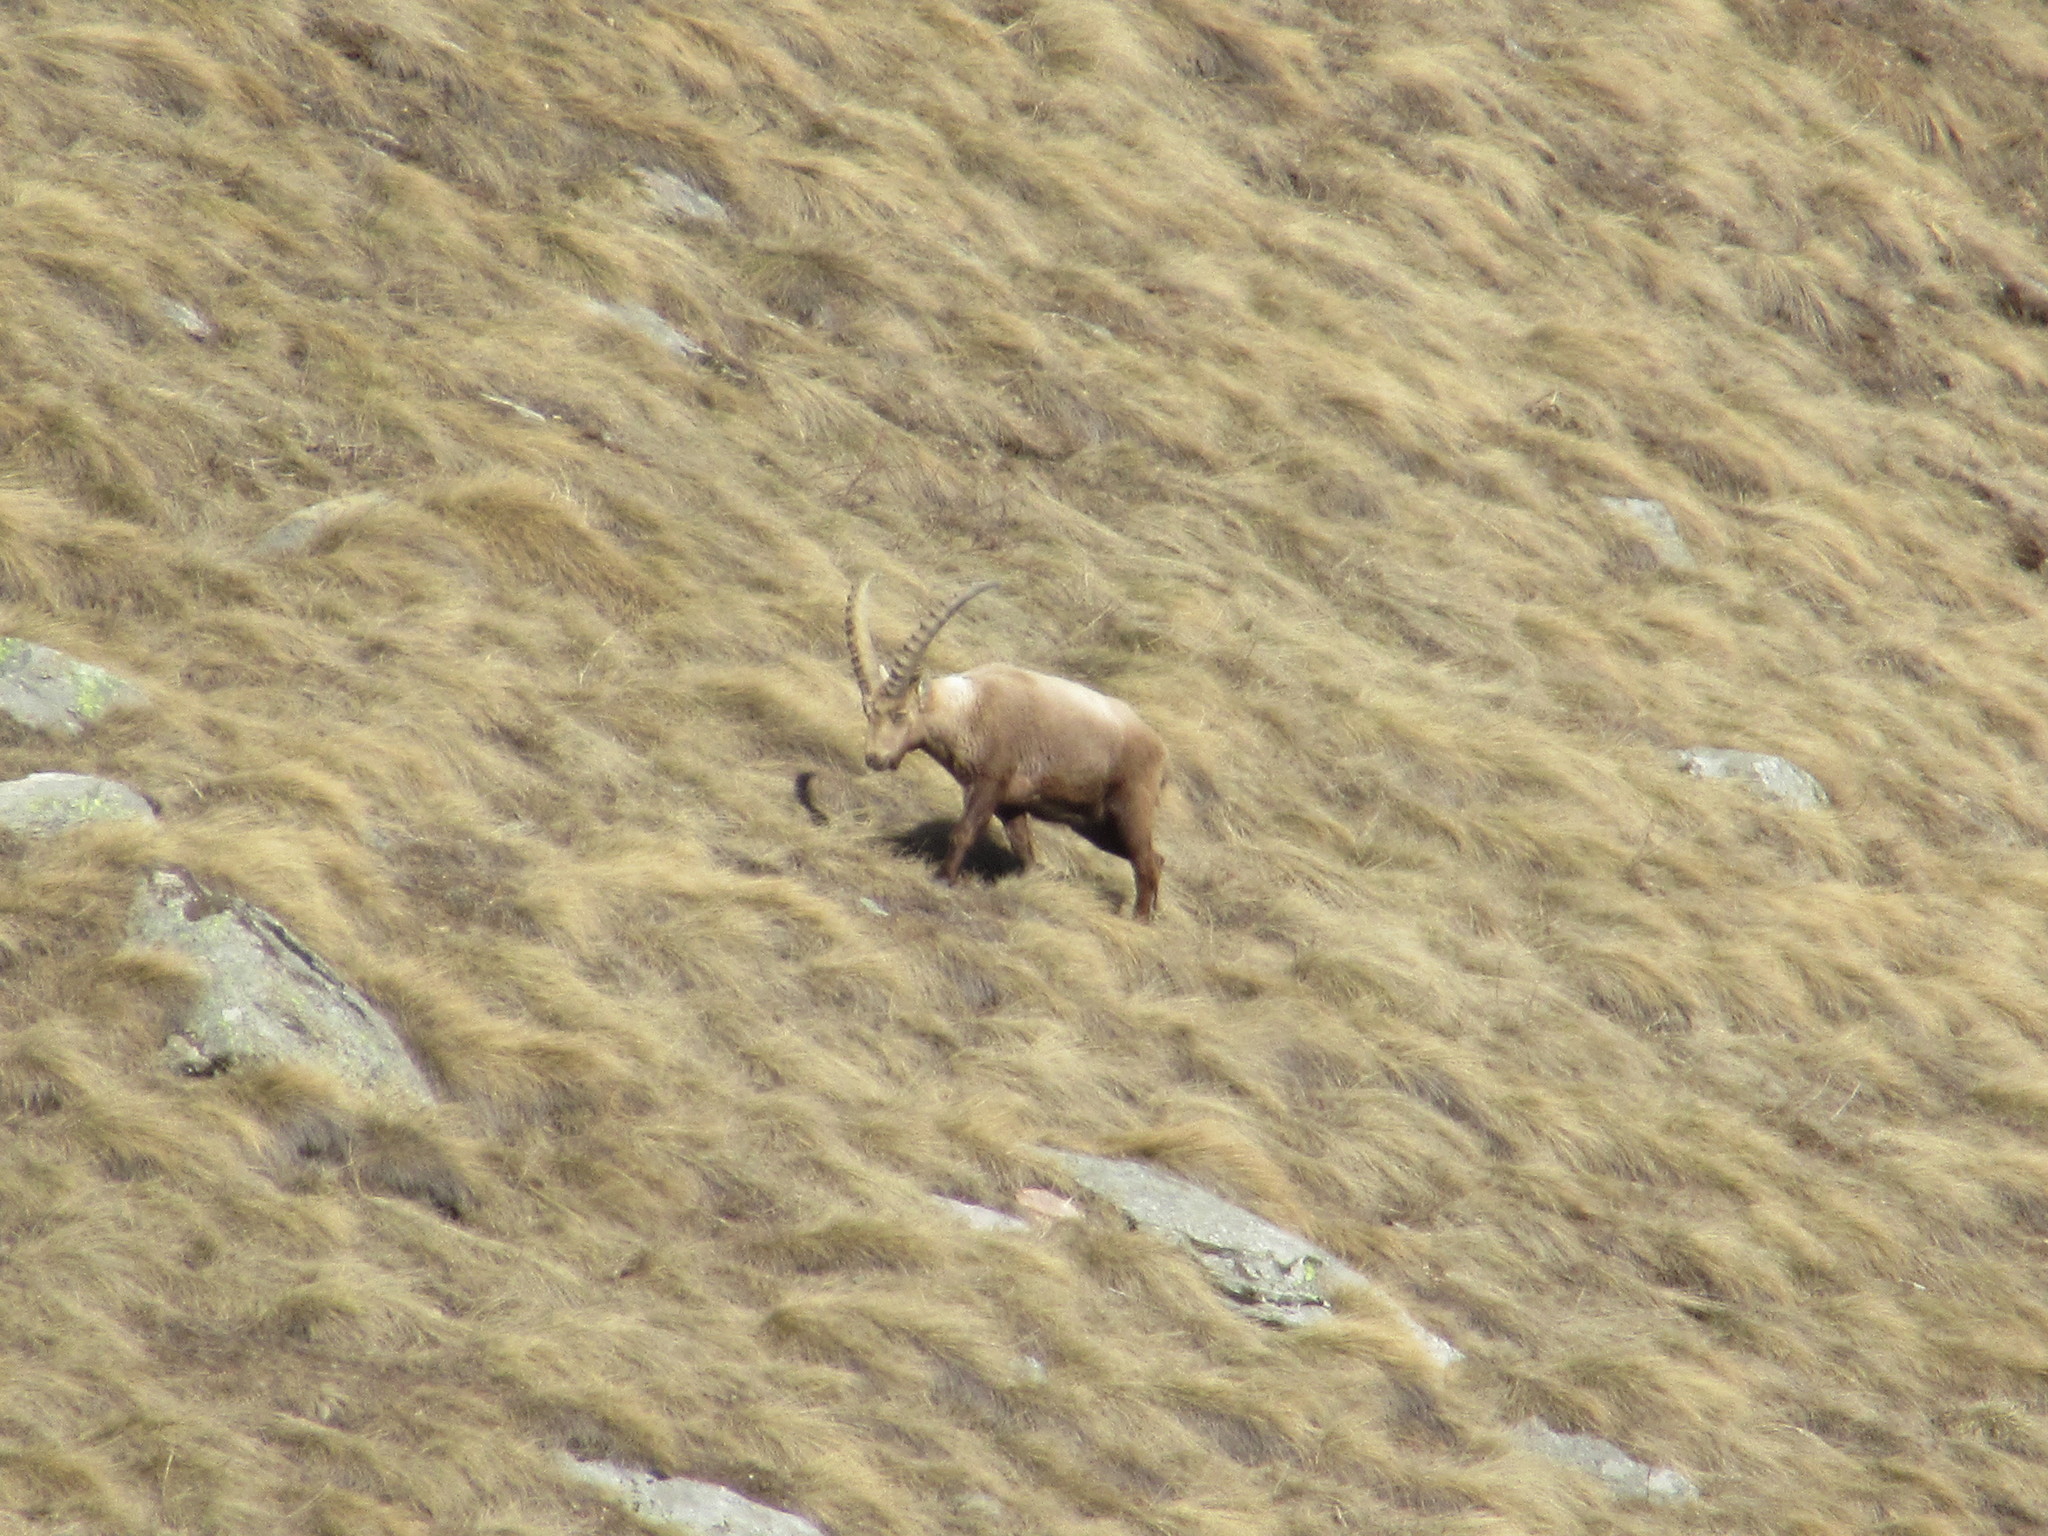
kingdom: Animalia
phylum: Chordata
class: Mammalia
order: Artiodactyla
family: Bovidae
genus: Capra
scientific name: Capra ibex
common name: Alpine ibex
